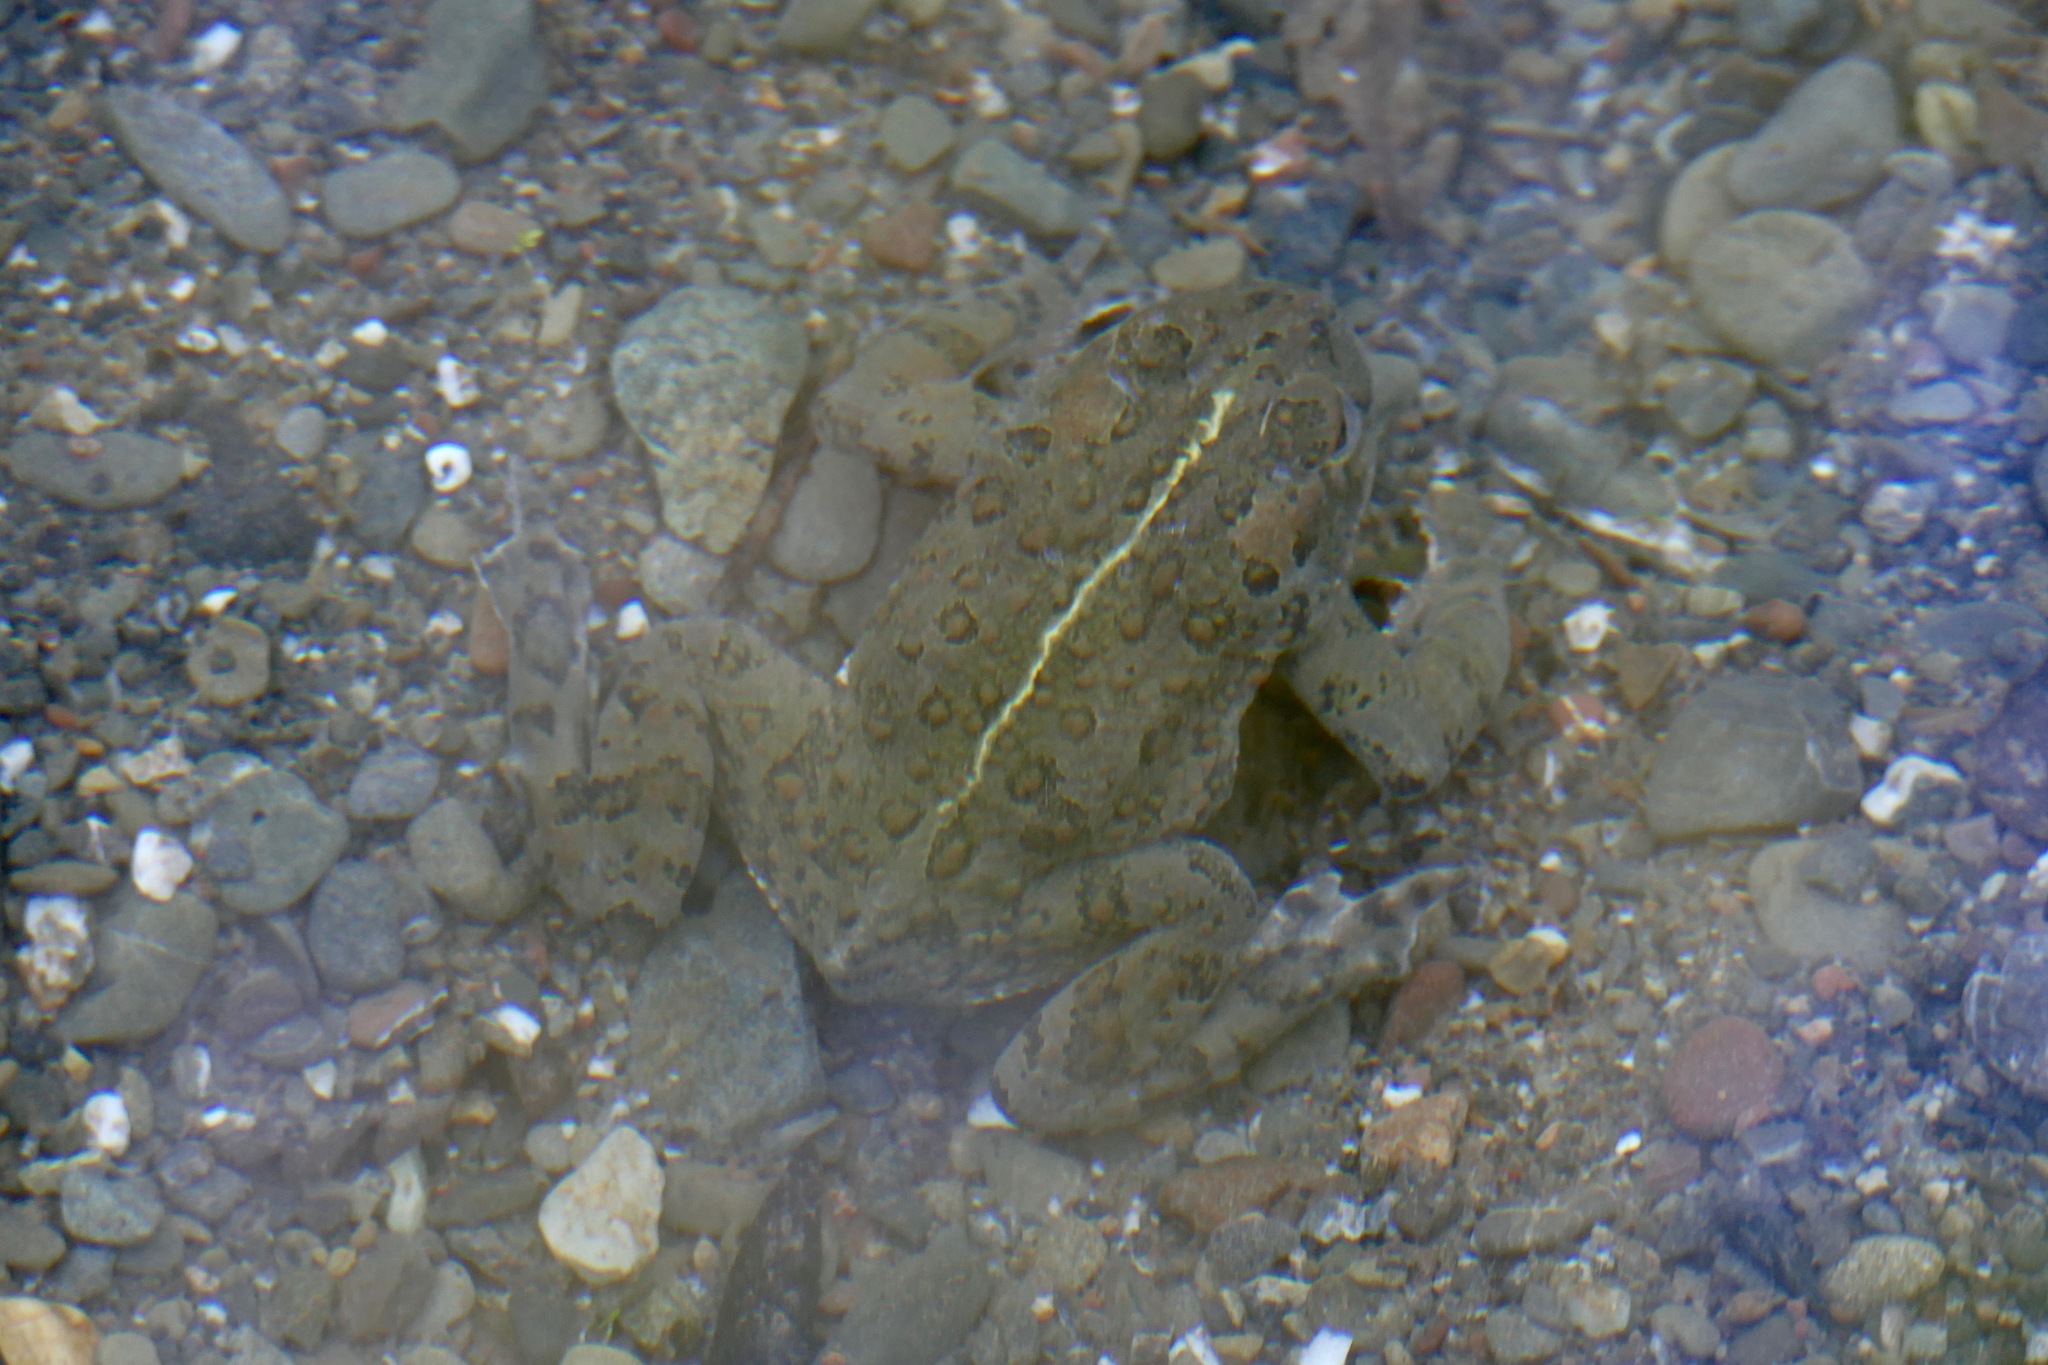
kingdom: Animalia
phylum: Chordata
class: Amphibia
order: Anura
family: Bufonidae
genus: Anaxyrus
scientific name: Anaxyrus boreas
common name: Western toad
